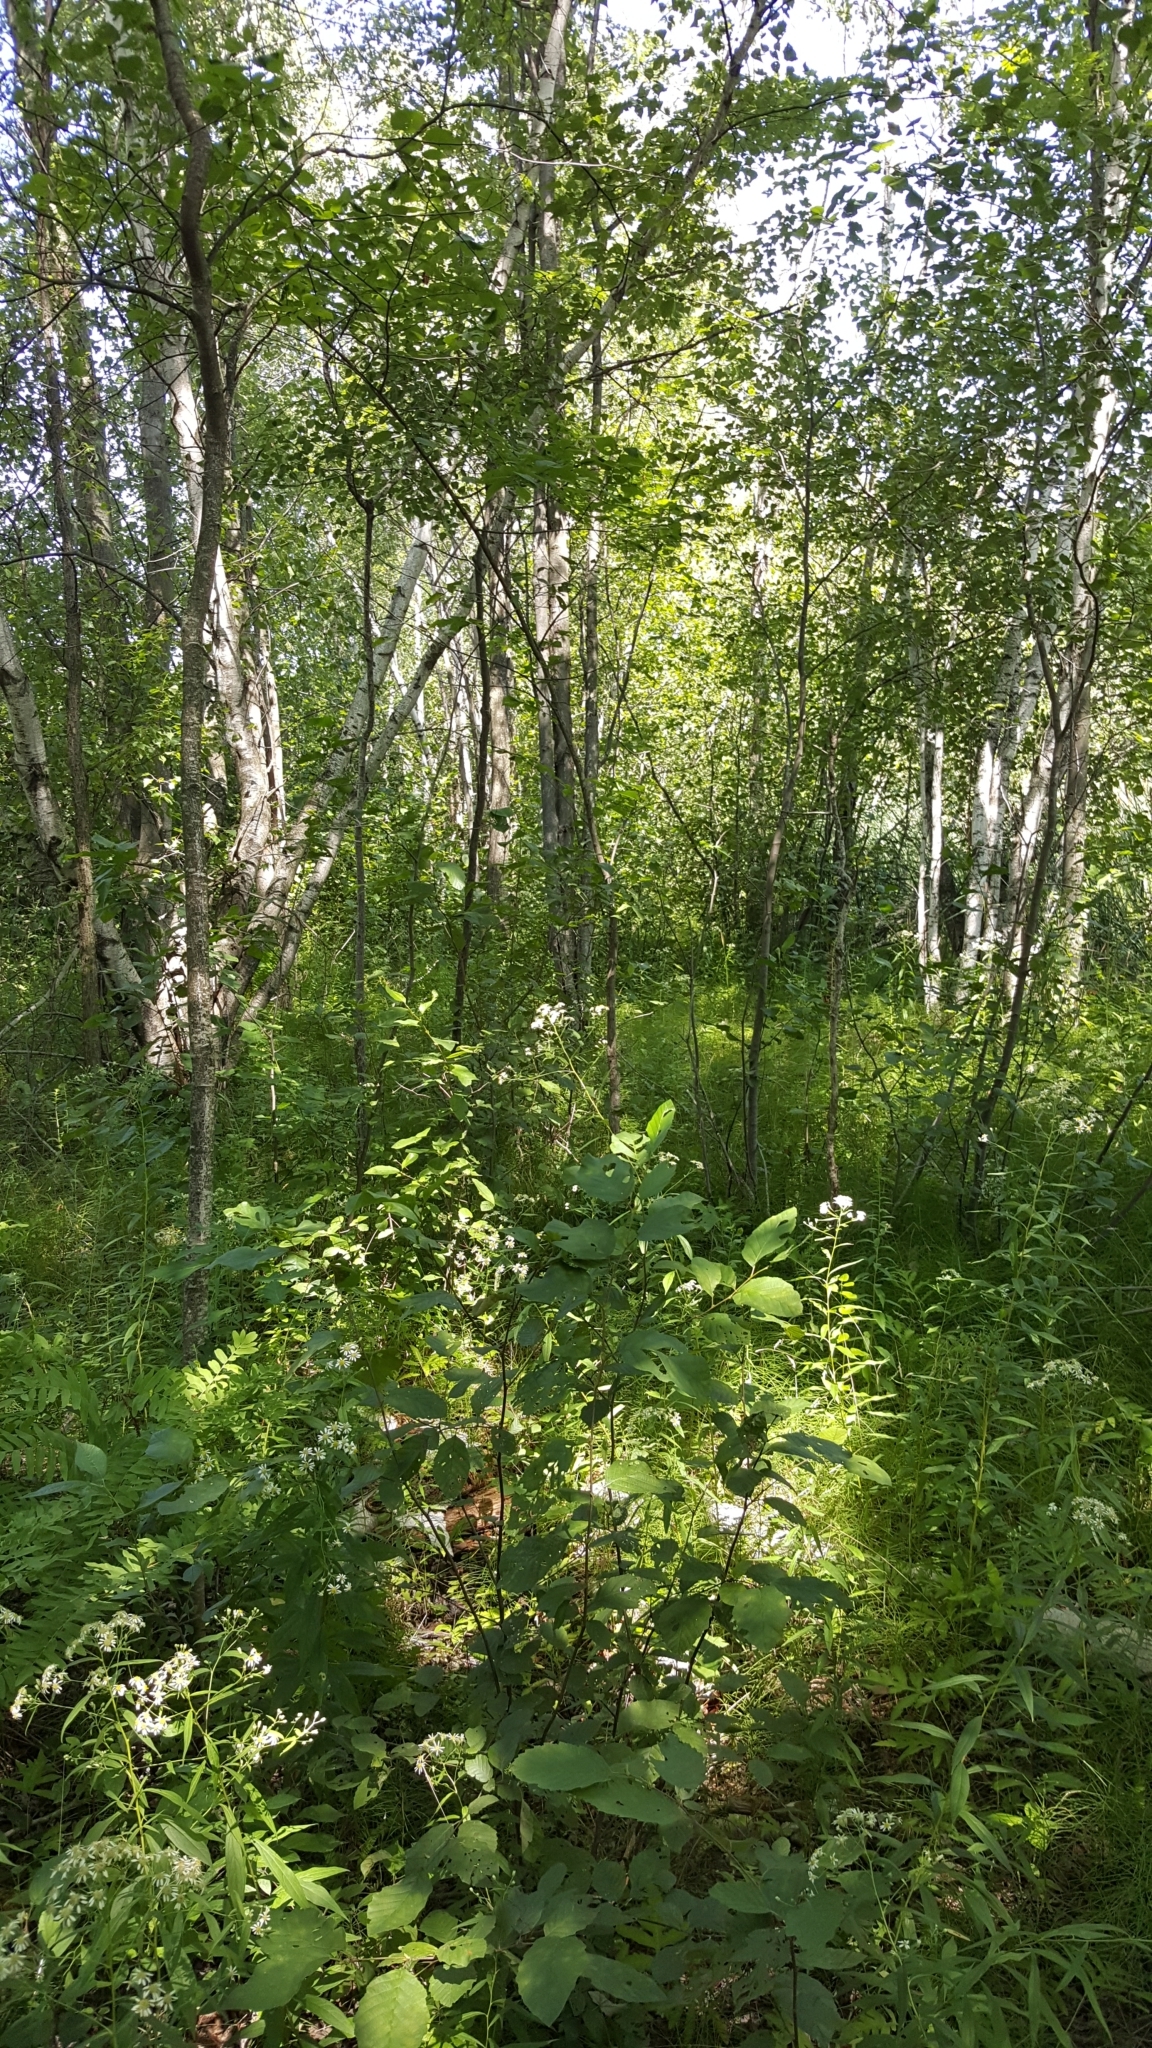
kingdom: Plantae
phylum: Tracheophyta
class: Magnoliopsida
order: Fagales
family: Betulaceae
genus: Betula
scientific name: Betula populifolia
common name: Fire birch
